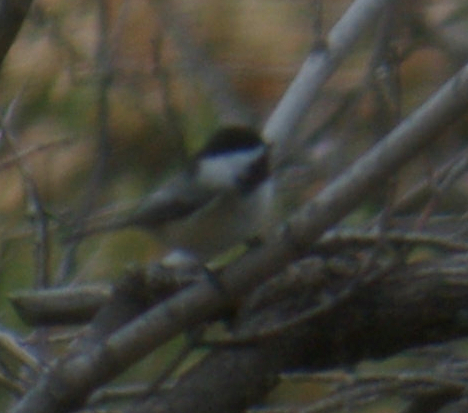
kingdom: Animalia
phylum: Chordata
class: Aves
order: Passeriformes
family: Paridae
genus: Poecile
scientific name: Poecile atricapillus
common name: Black-capped chickadee
